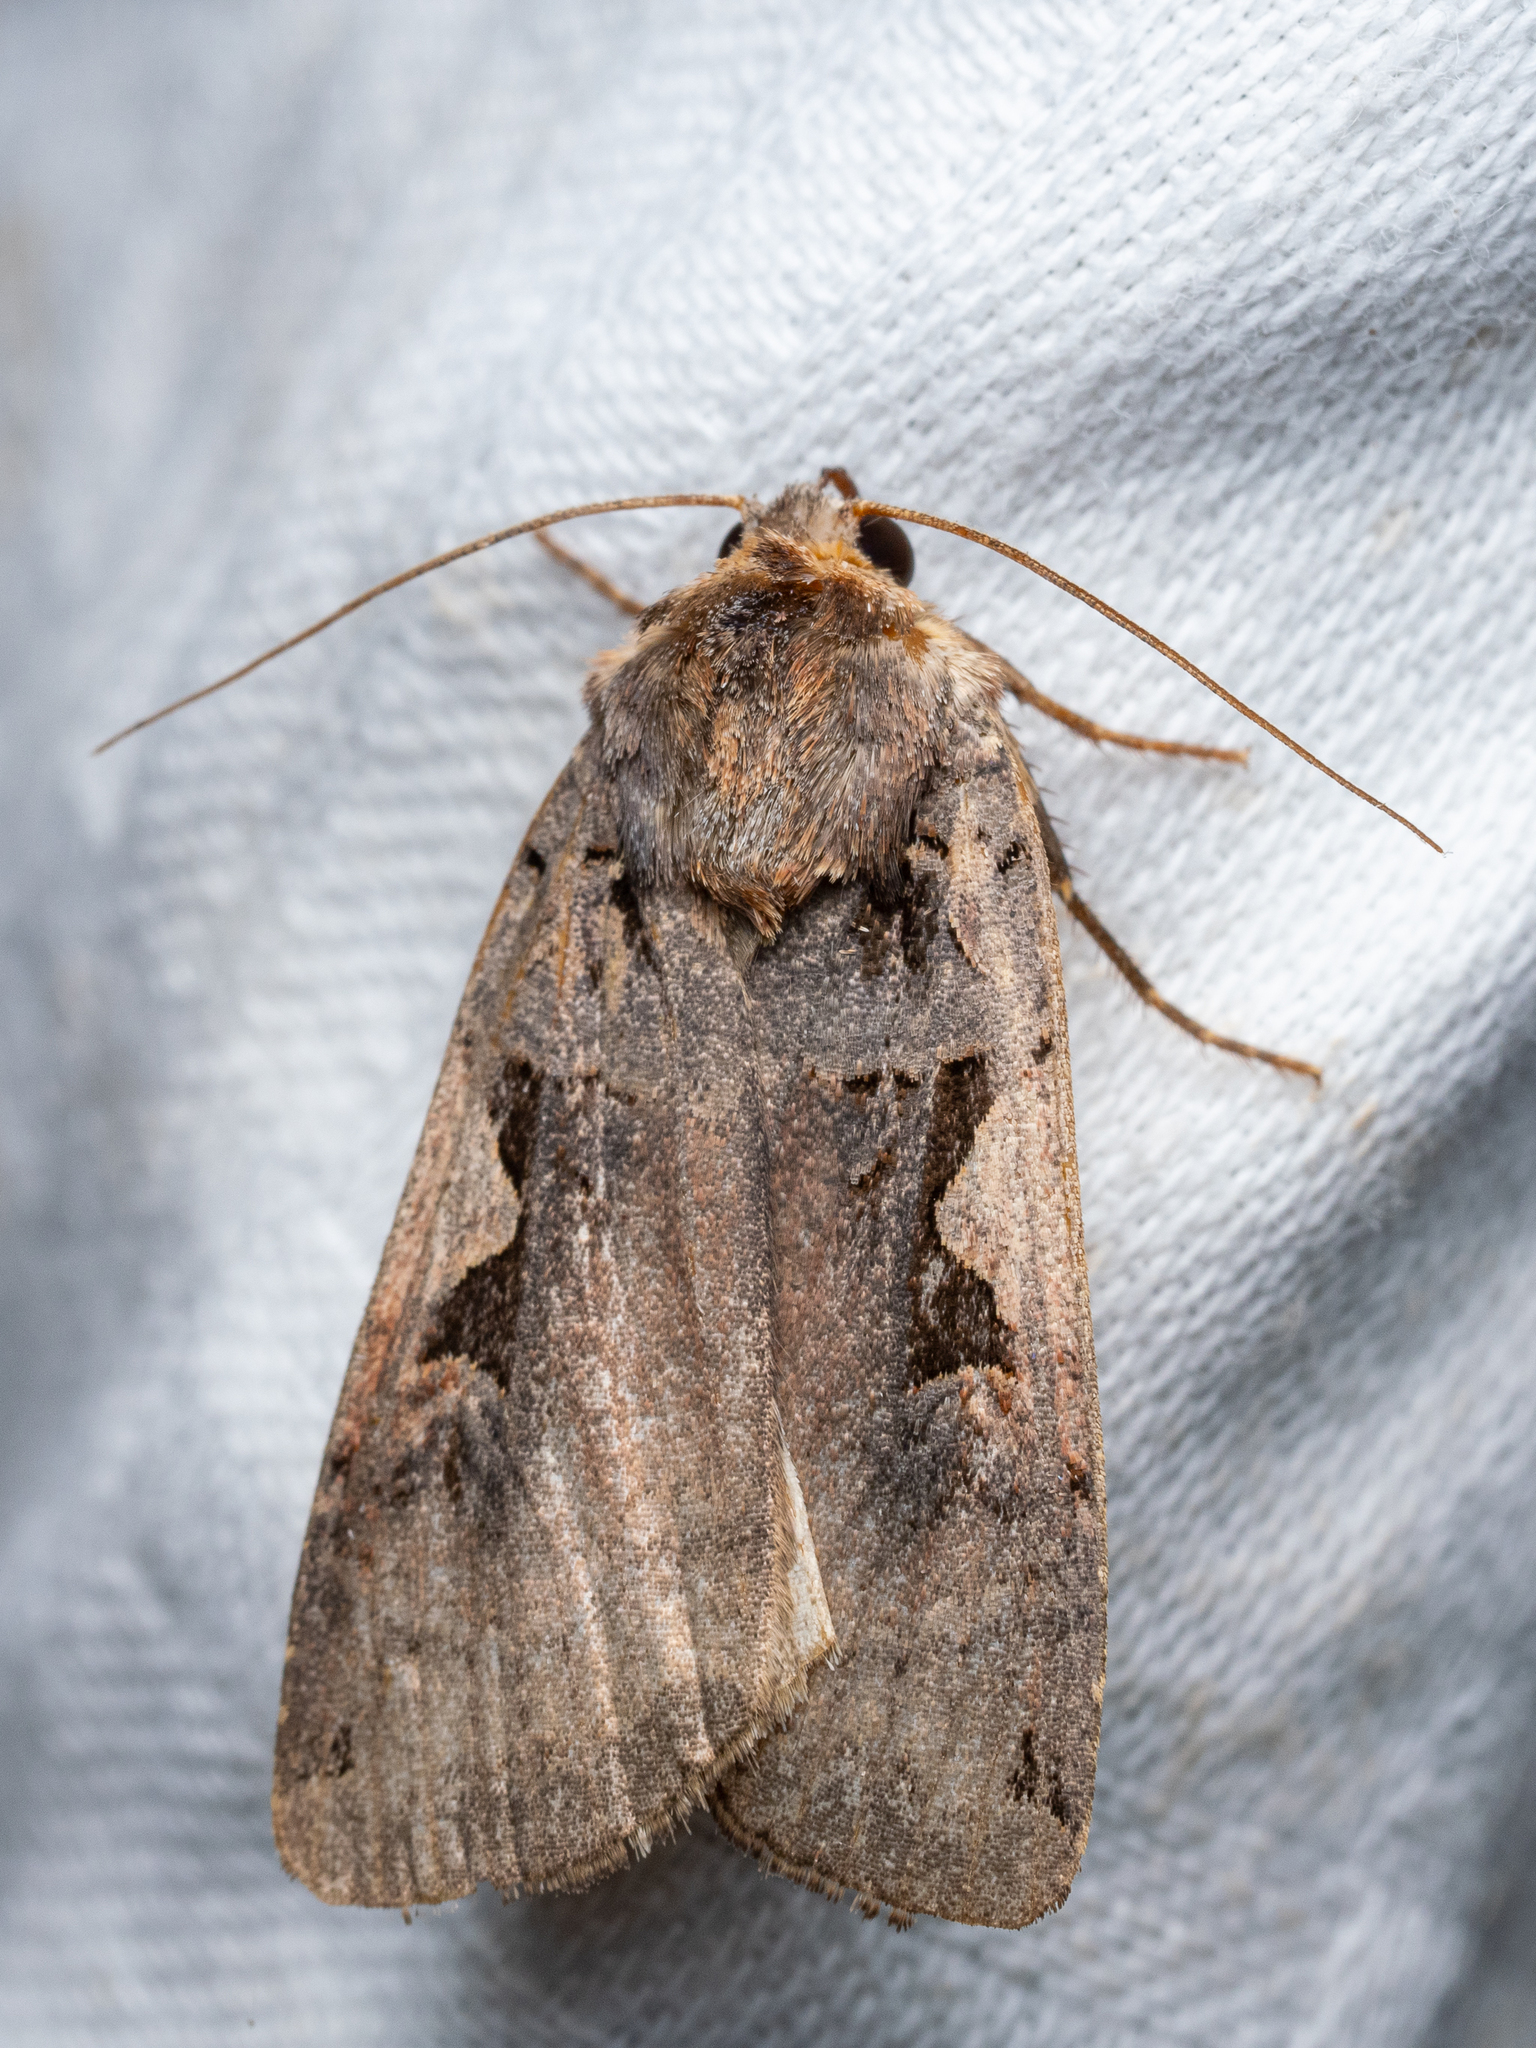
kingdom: Animalia
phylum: Arthropoda
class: Insecta
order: Lepidoptera
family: Noctuidae
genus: Xestia
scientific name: Xestia c-nigrum
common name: Setaceous hebrew character
